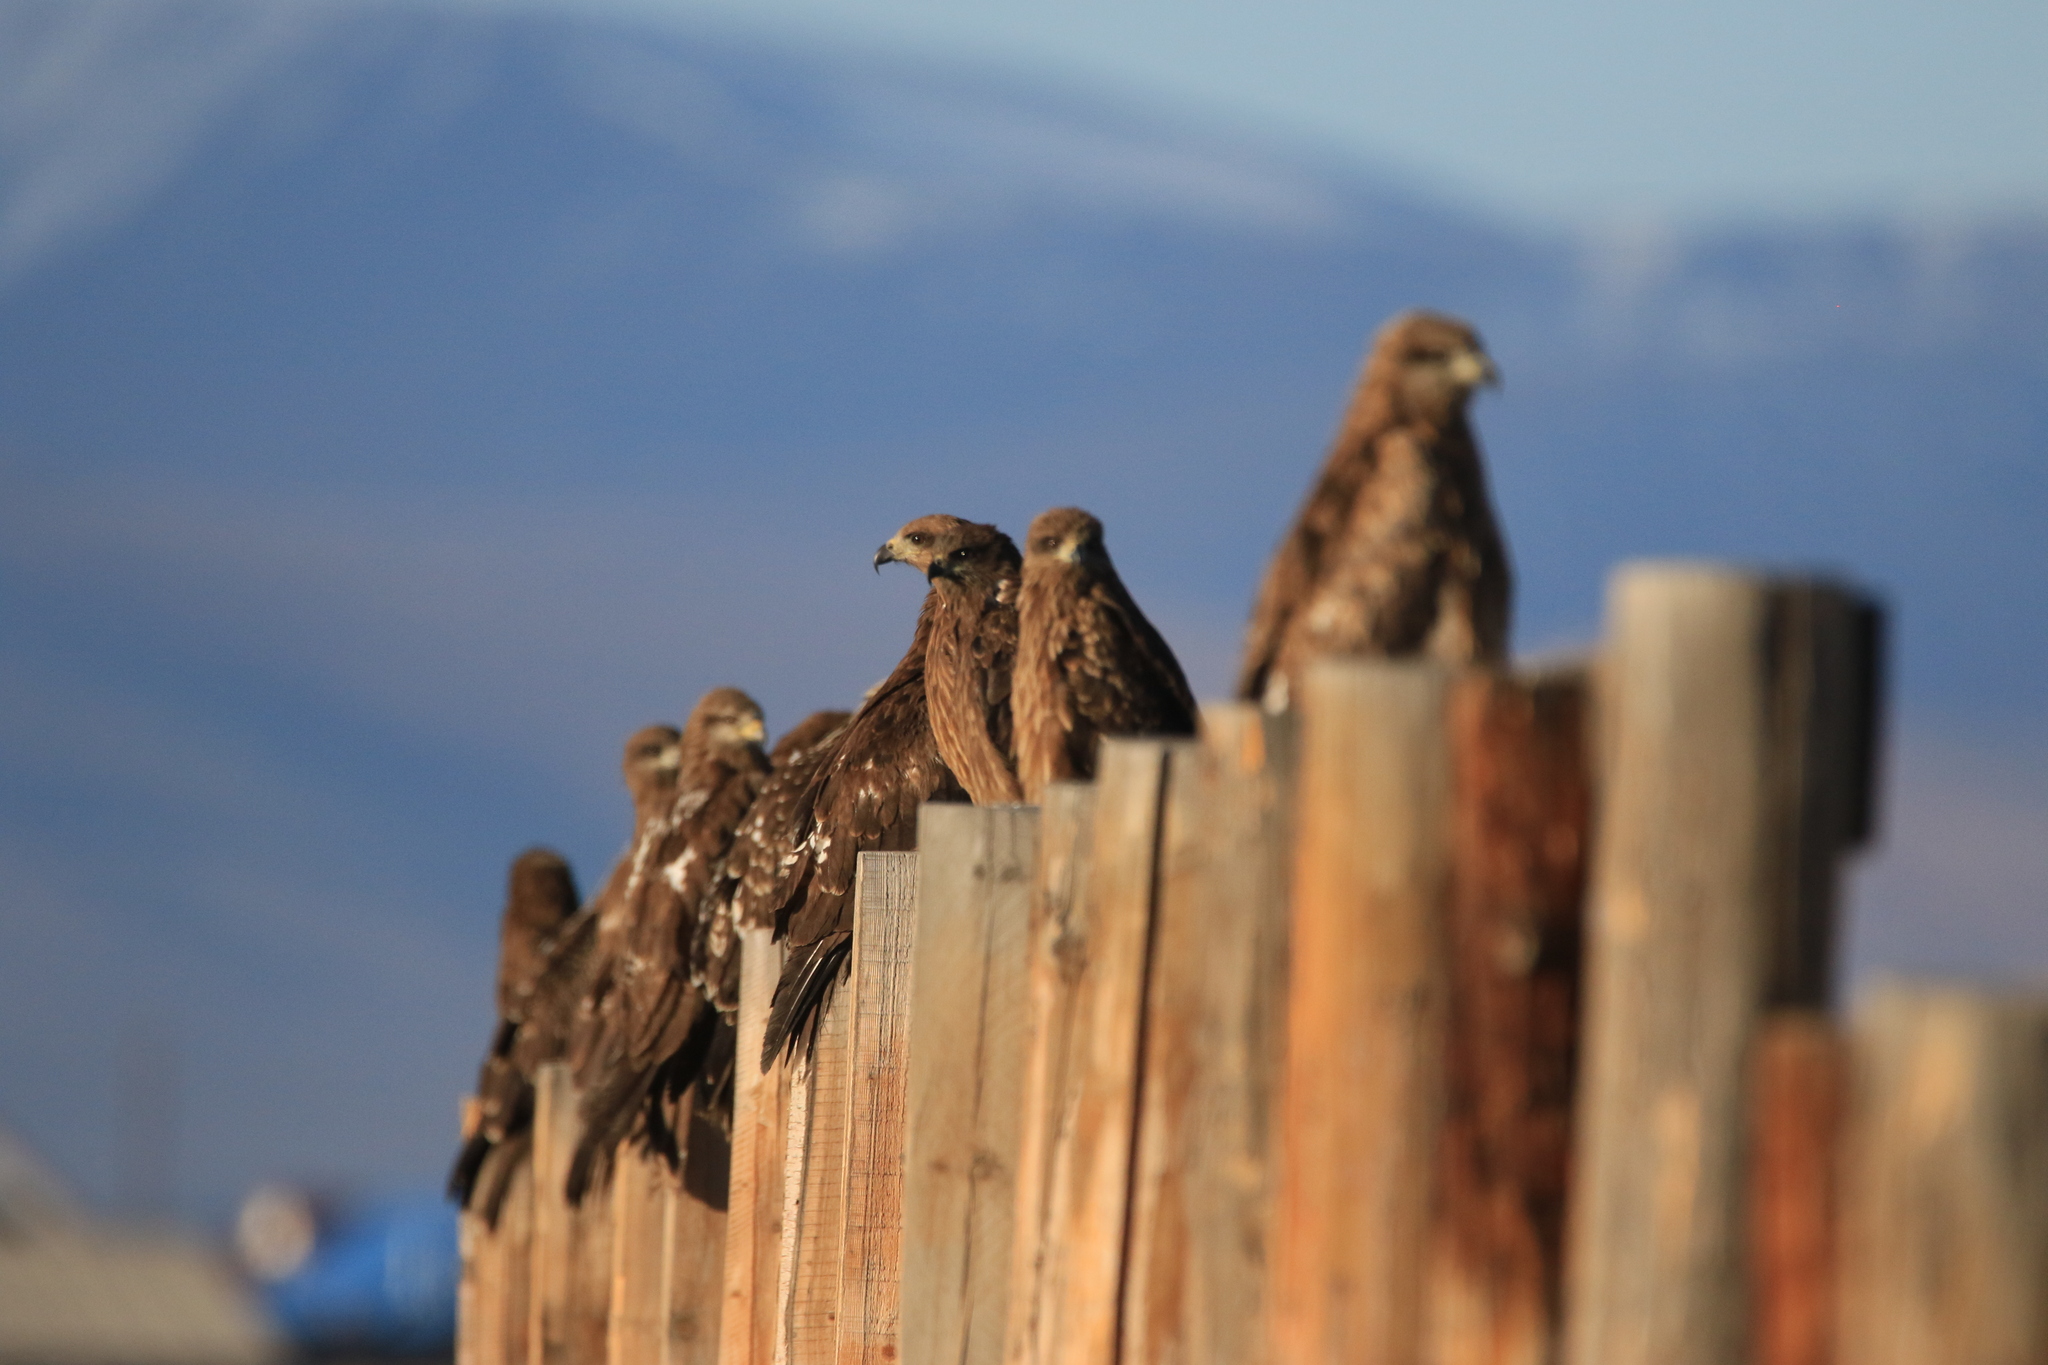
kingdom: Animalia
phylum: Chordata
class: Aves
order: Accipitriformes
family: Accipitridae
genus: Milvus
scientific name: Milvus migrans
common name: Black kite
